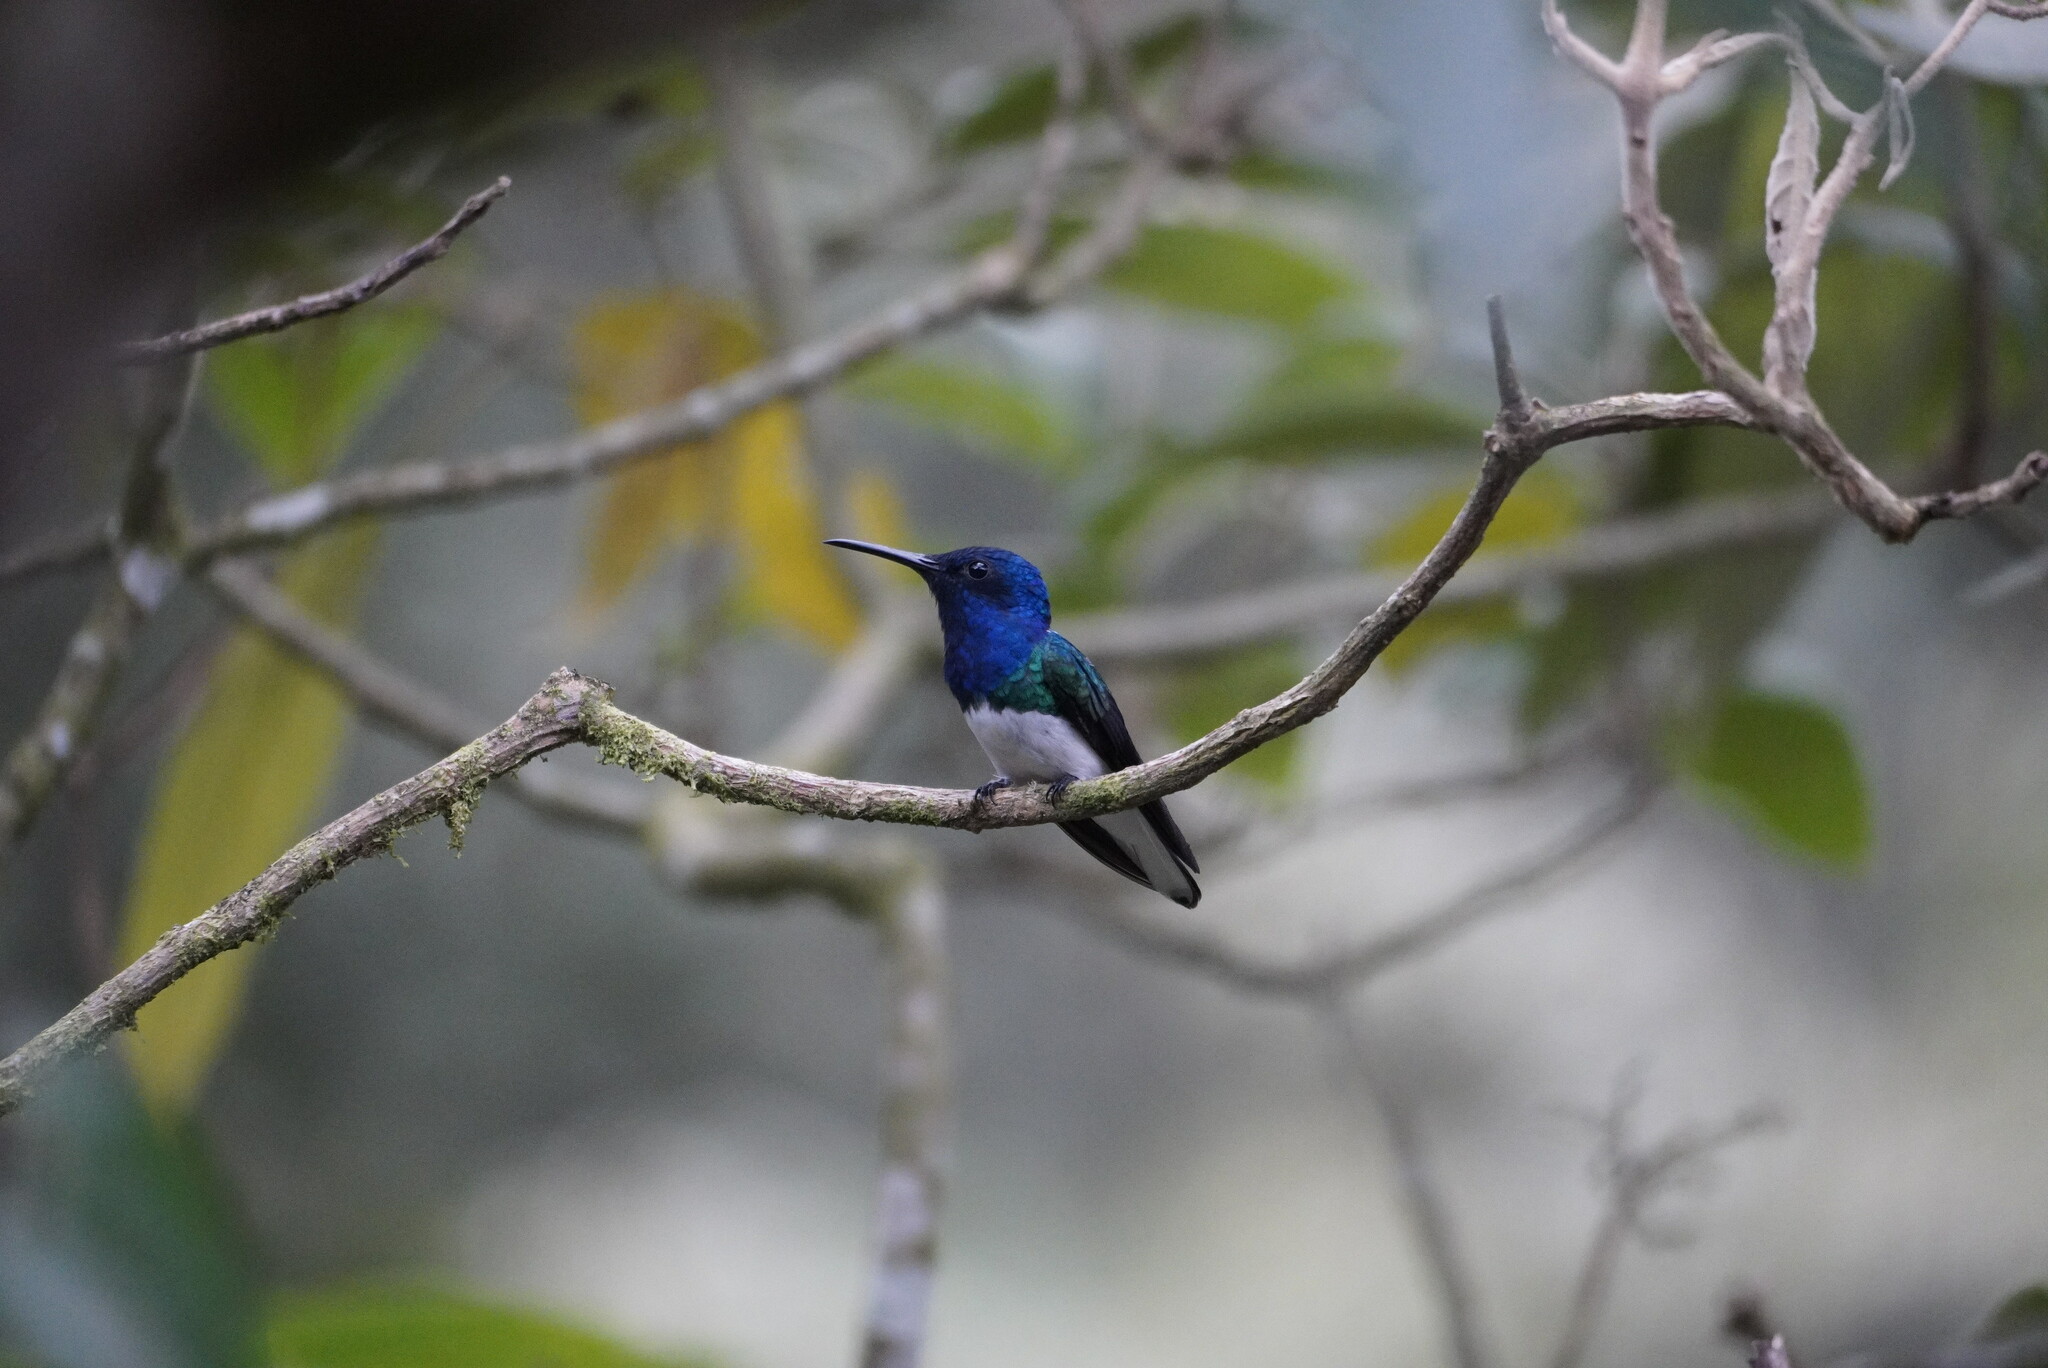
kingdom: Animalia
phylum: Chordata
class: Aves
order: Apodiformes
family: Trochilidae
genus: Florisuga
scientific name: Florisuga mellivora
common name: White-necked jacobin
